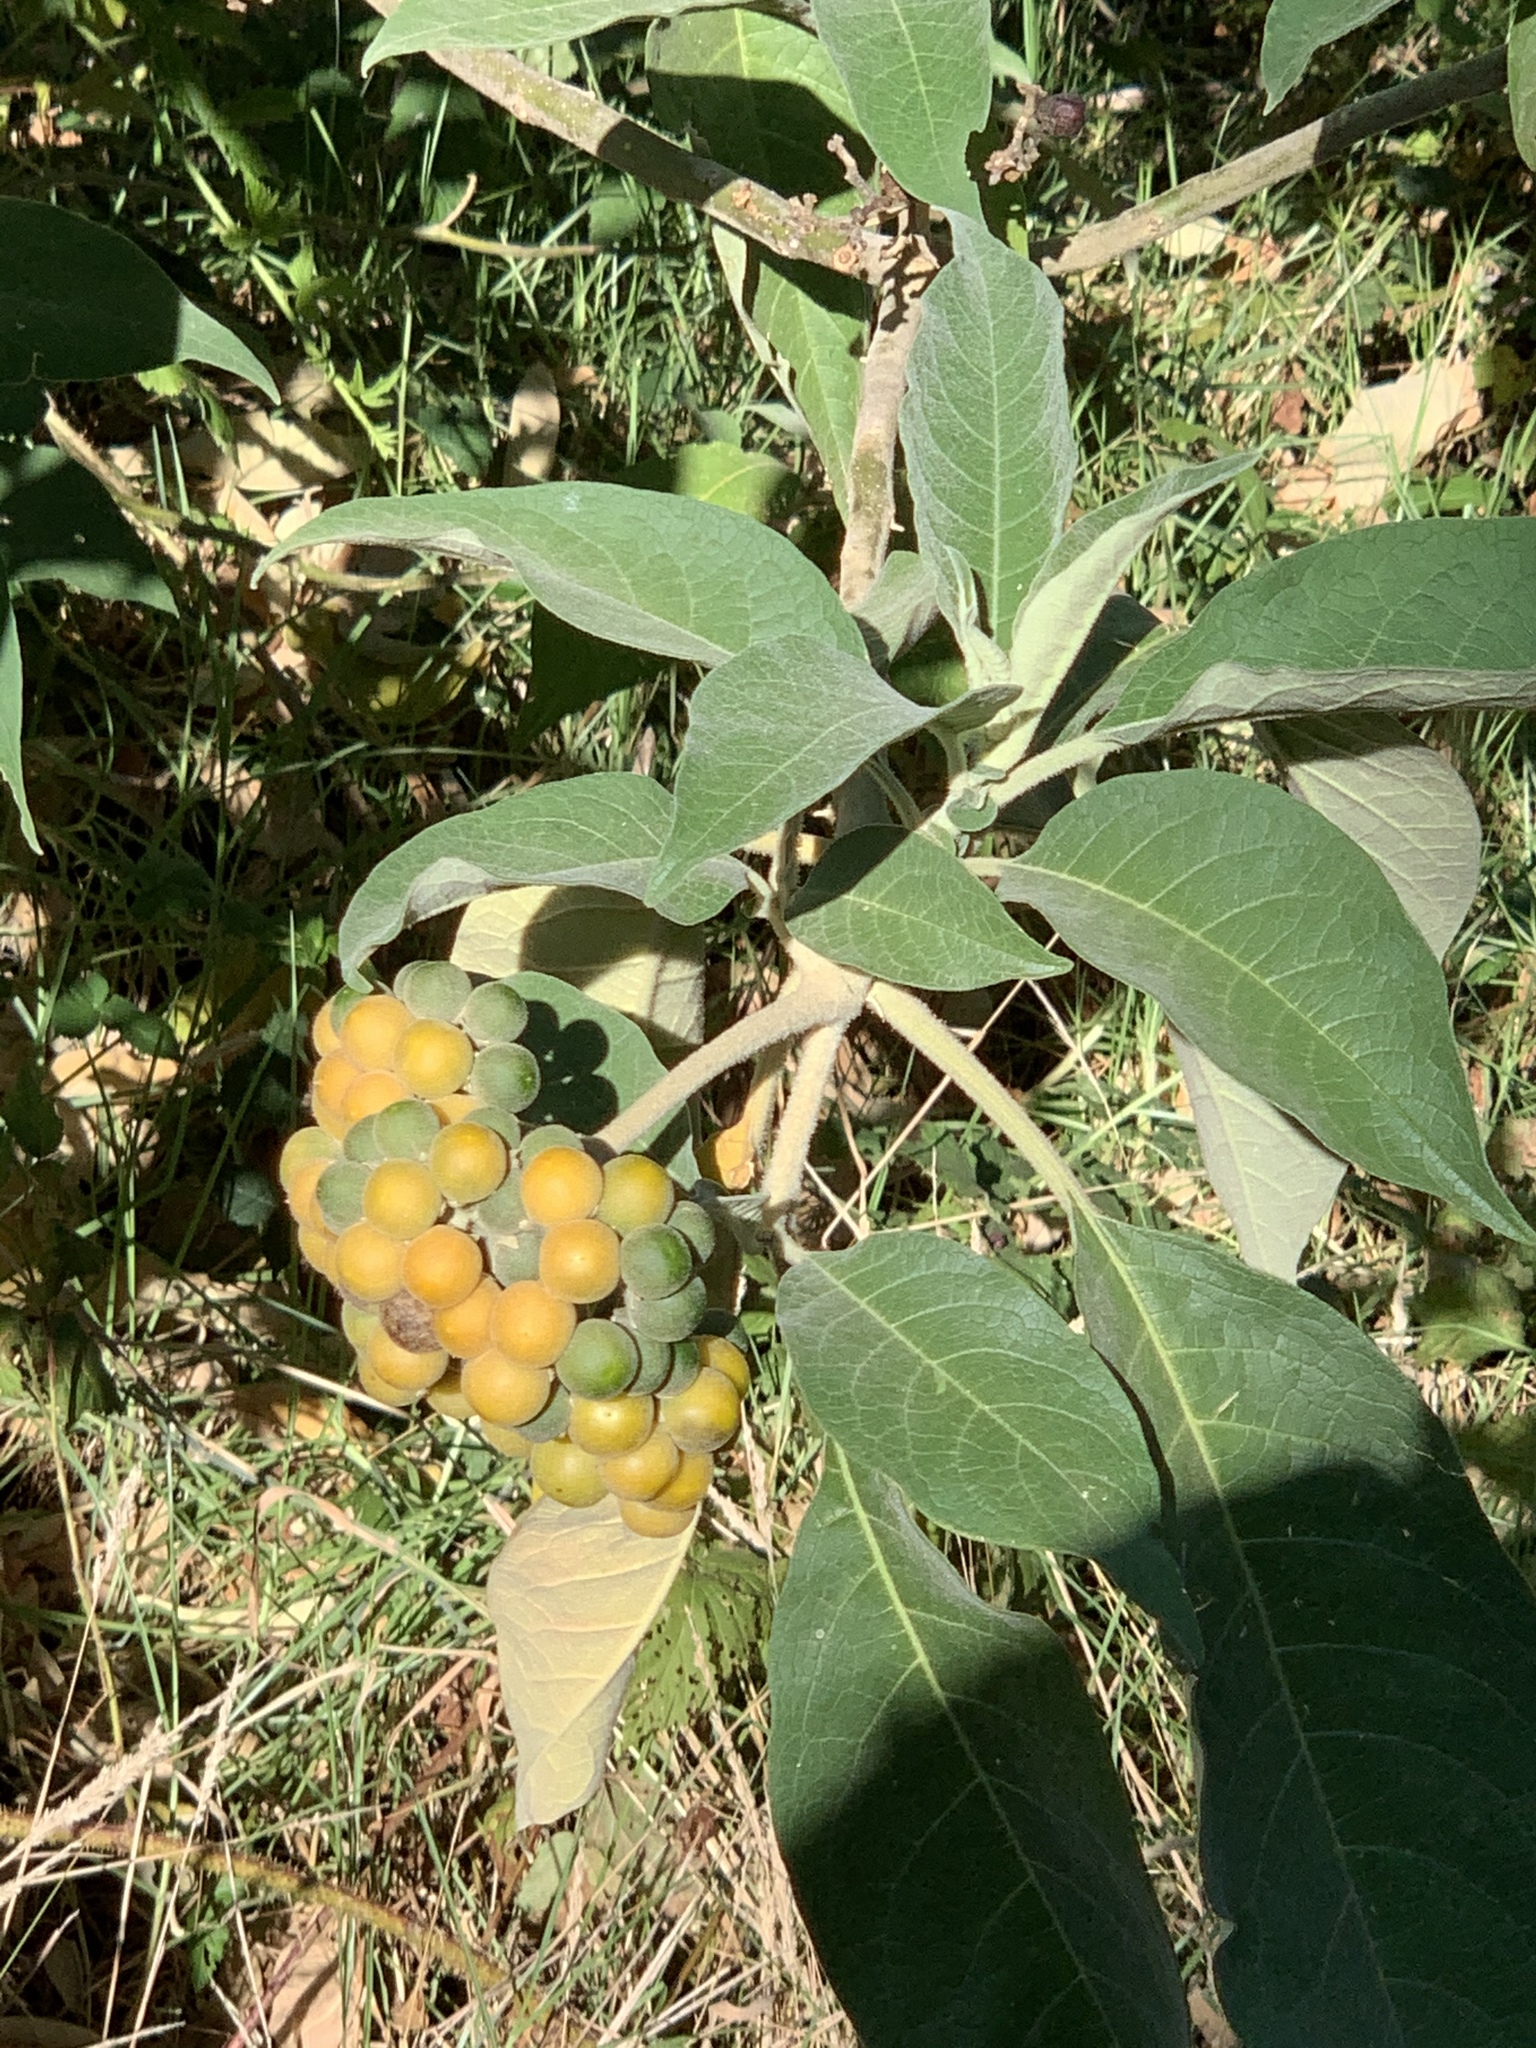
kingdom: Plantae
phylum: Tracheophyta
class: Magnoliopsida
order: Solanales
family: Solanaceae
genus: Solanum
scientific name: Solanum mauritianum
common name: Earleaf nightshade
